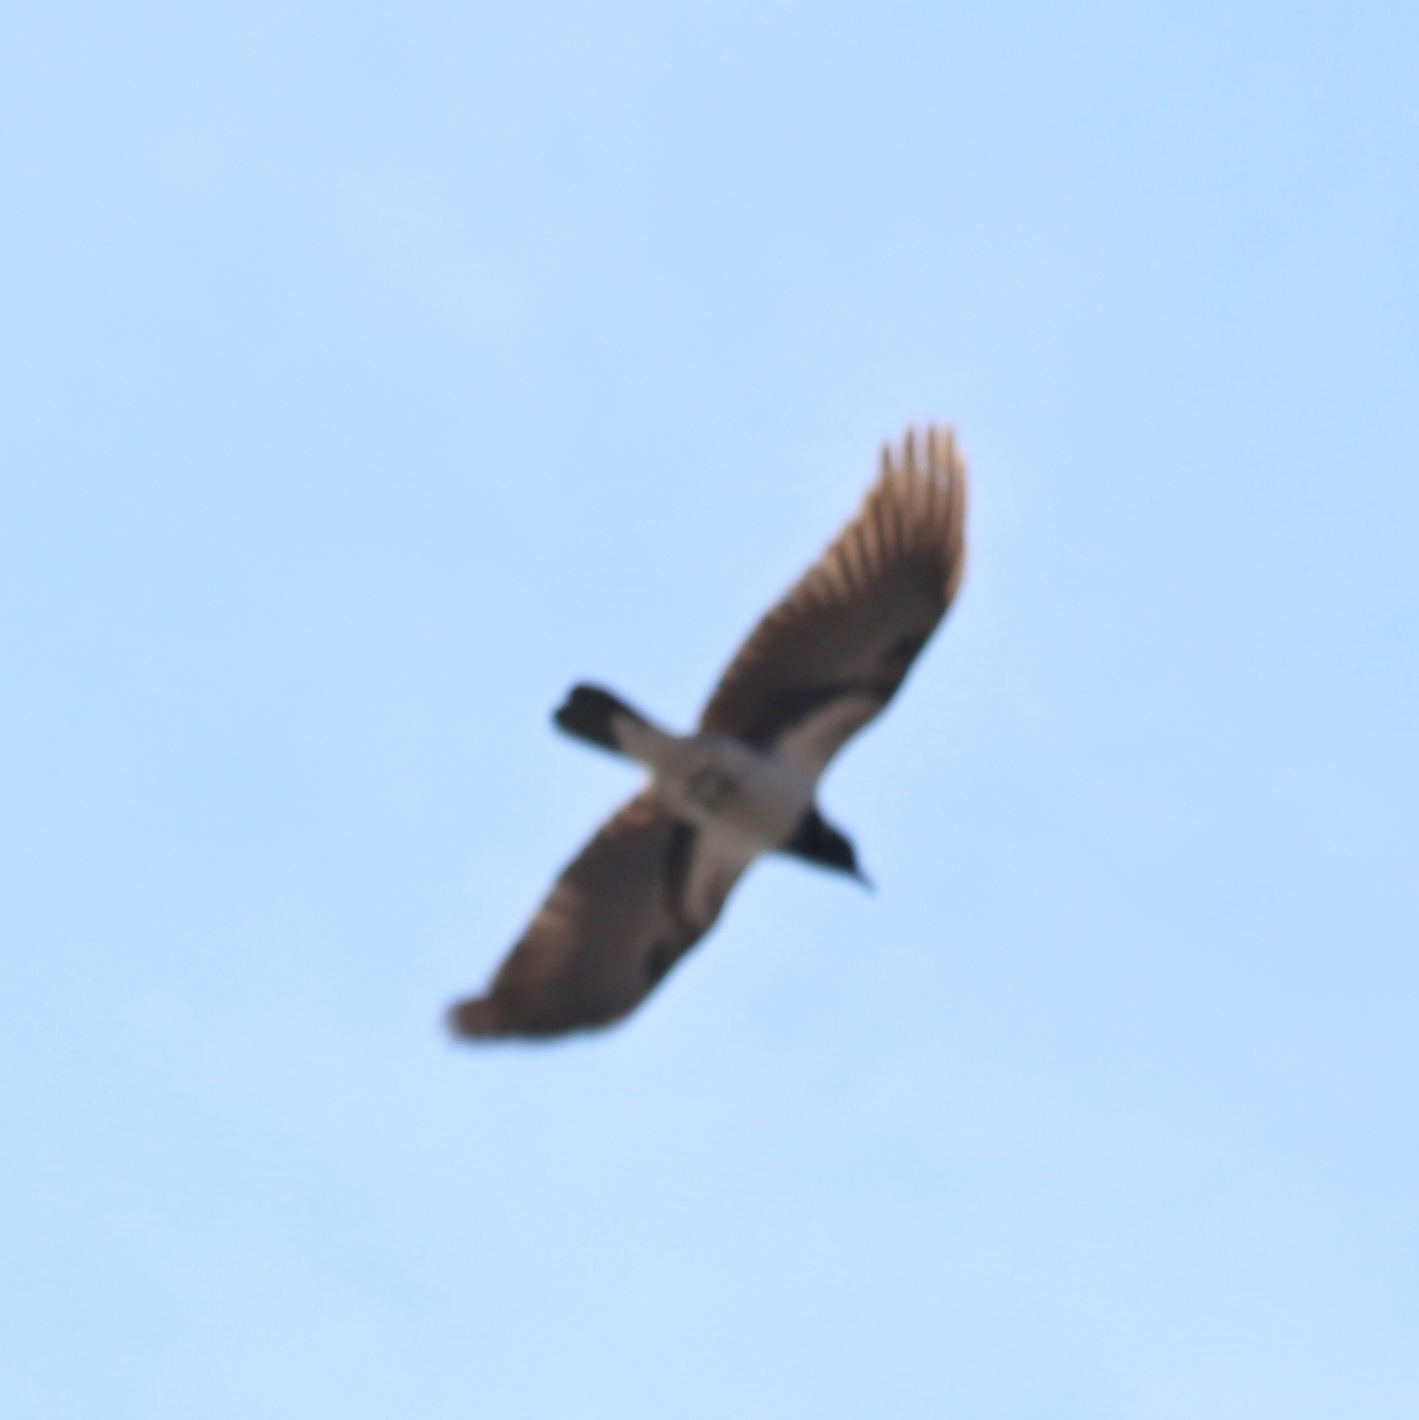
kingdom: Animalia
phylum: Chordata
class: Aves
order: Passeriformes
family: Corvidae
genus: Corvus
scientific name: Corvus cornix
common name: Hooded crow
